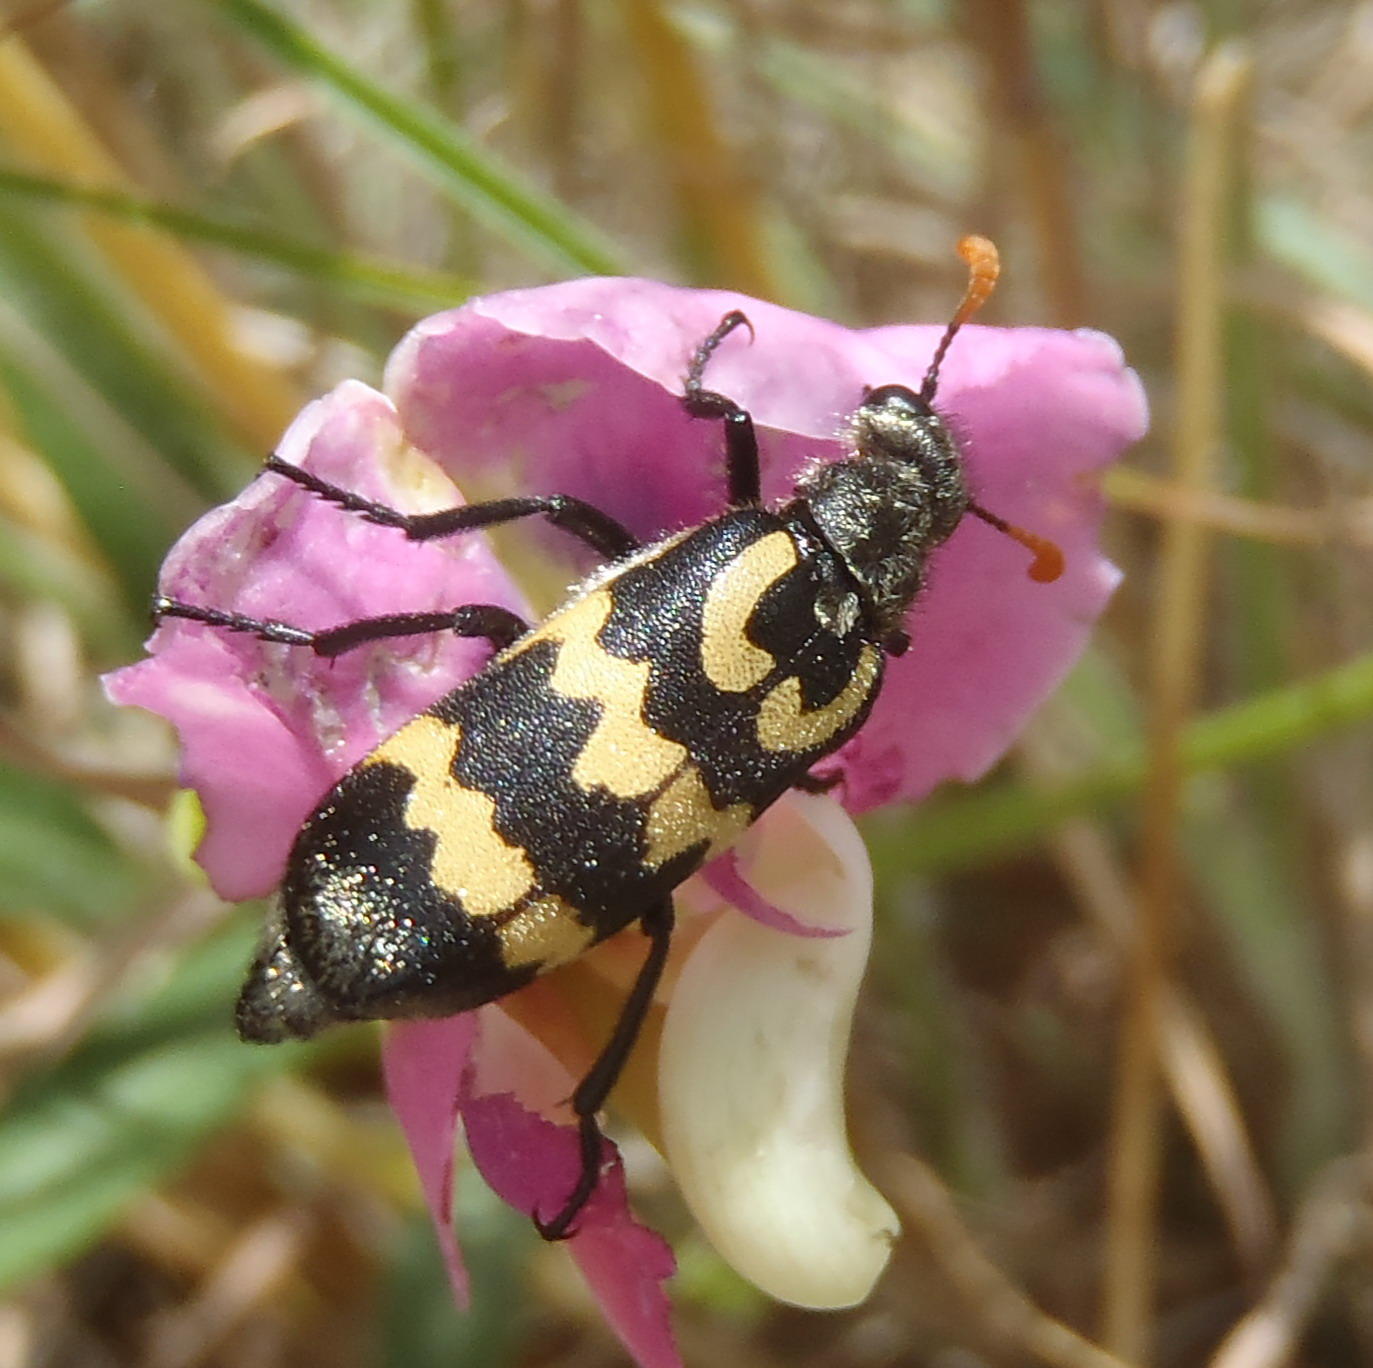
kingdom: Animalia
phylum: Arthropoda
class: Insecta
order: Coleoptera
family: Meloidae
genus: Meloe
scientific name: Meloe lunata
